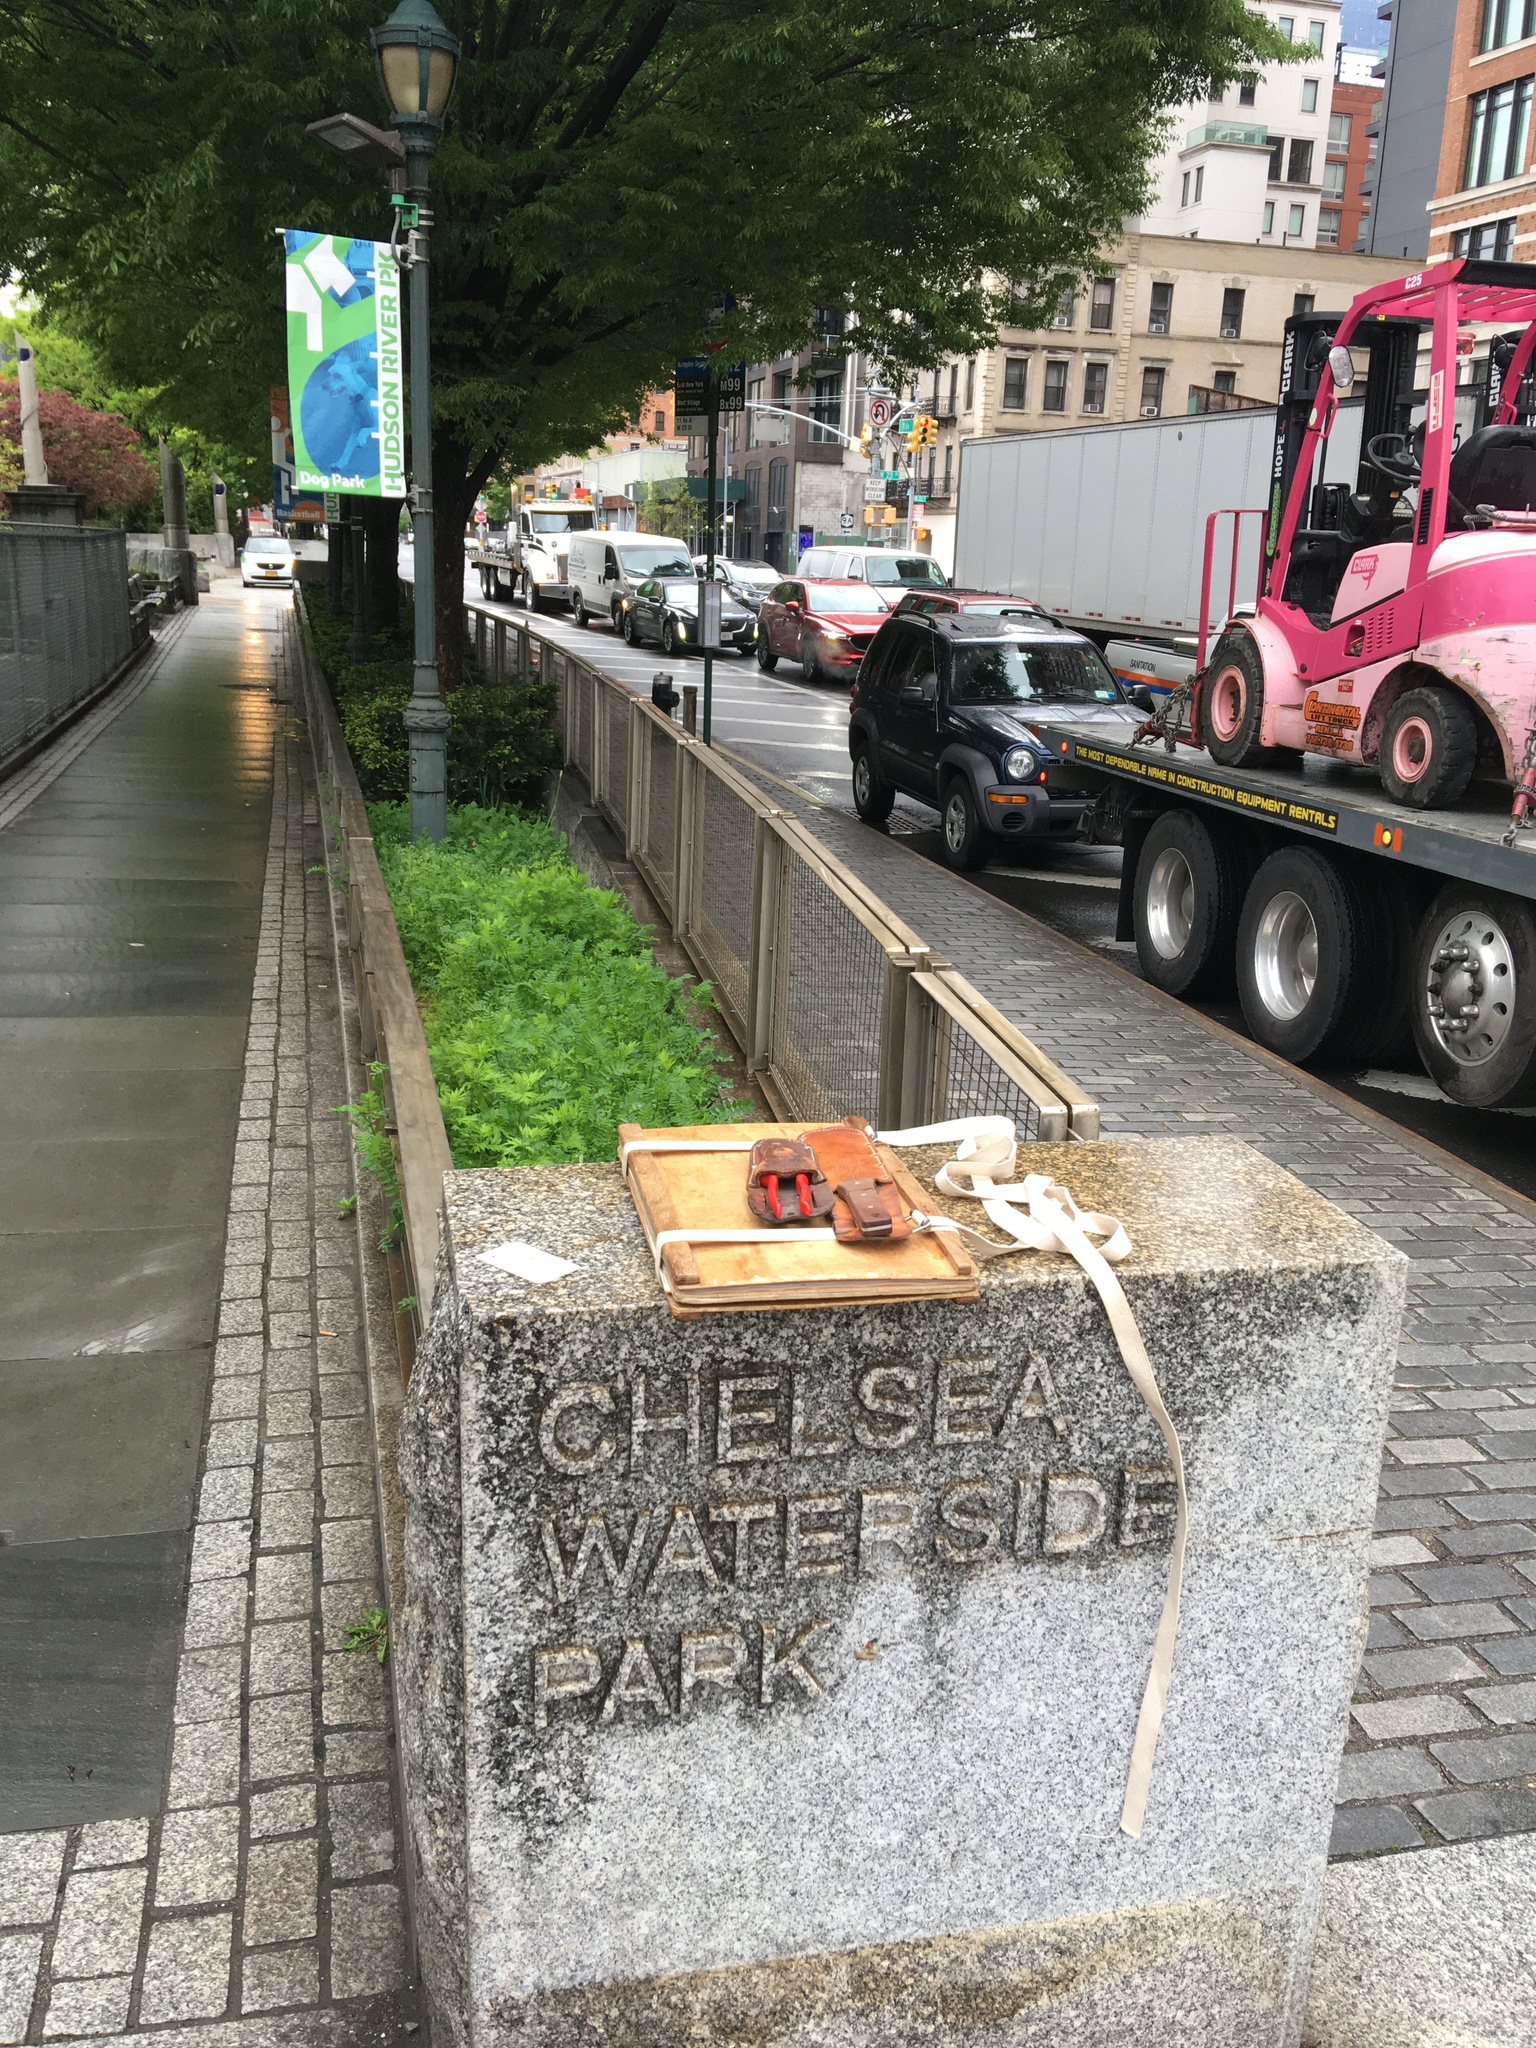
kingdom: Plantae
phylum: Tracheophyta
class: Magnoliopsida
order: Apiales
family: Apiaceae
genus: Chaerophyllum
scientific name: Chaerophyllum tainturieri
